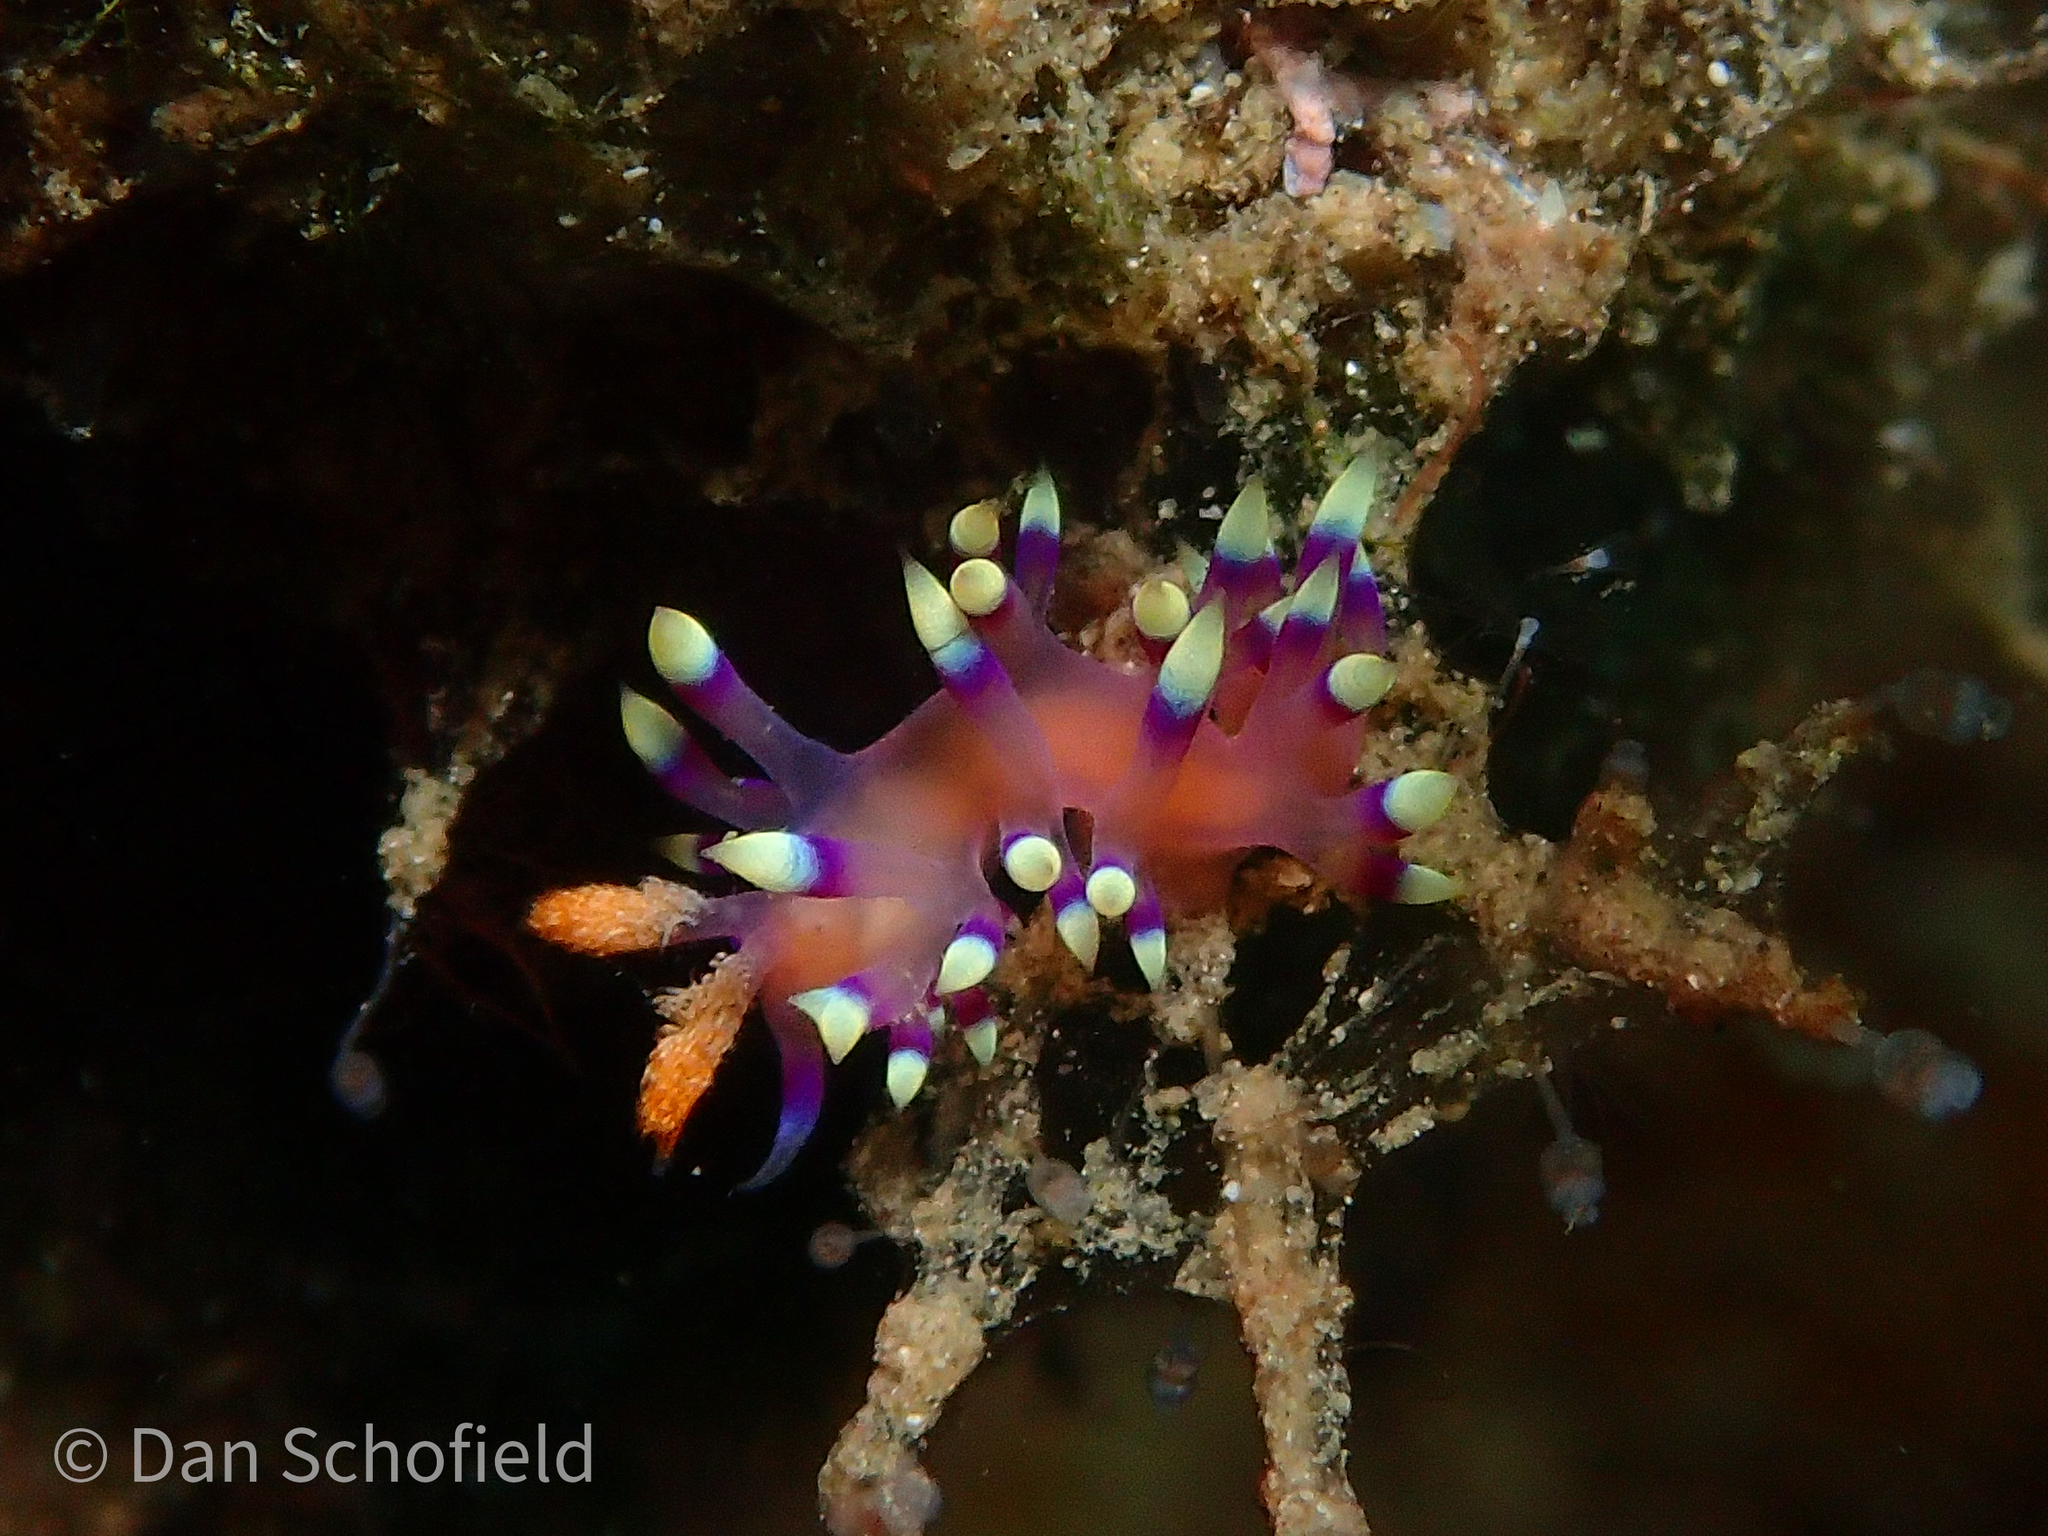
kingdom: Animalia
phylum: Mollusca
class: Gastropoda
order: Nudibranchia
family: Flabellinidae
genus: Coryphellina
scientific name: Coryphellina exoptata
